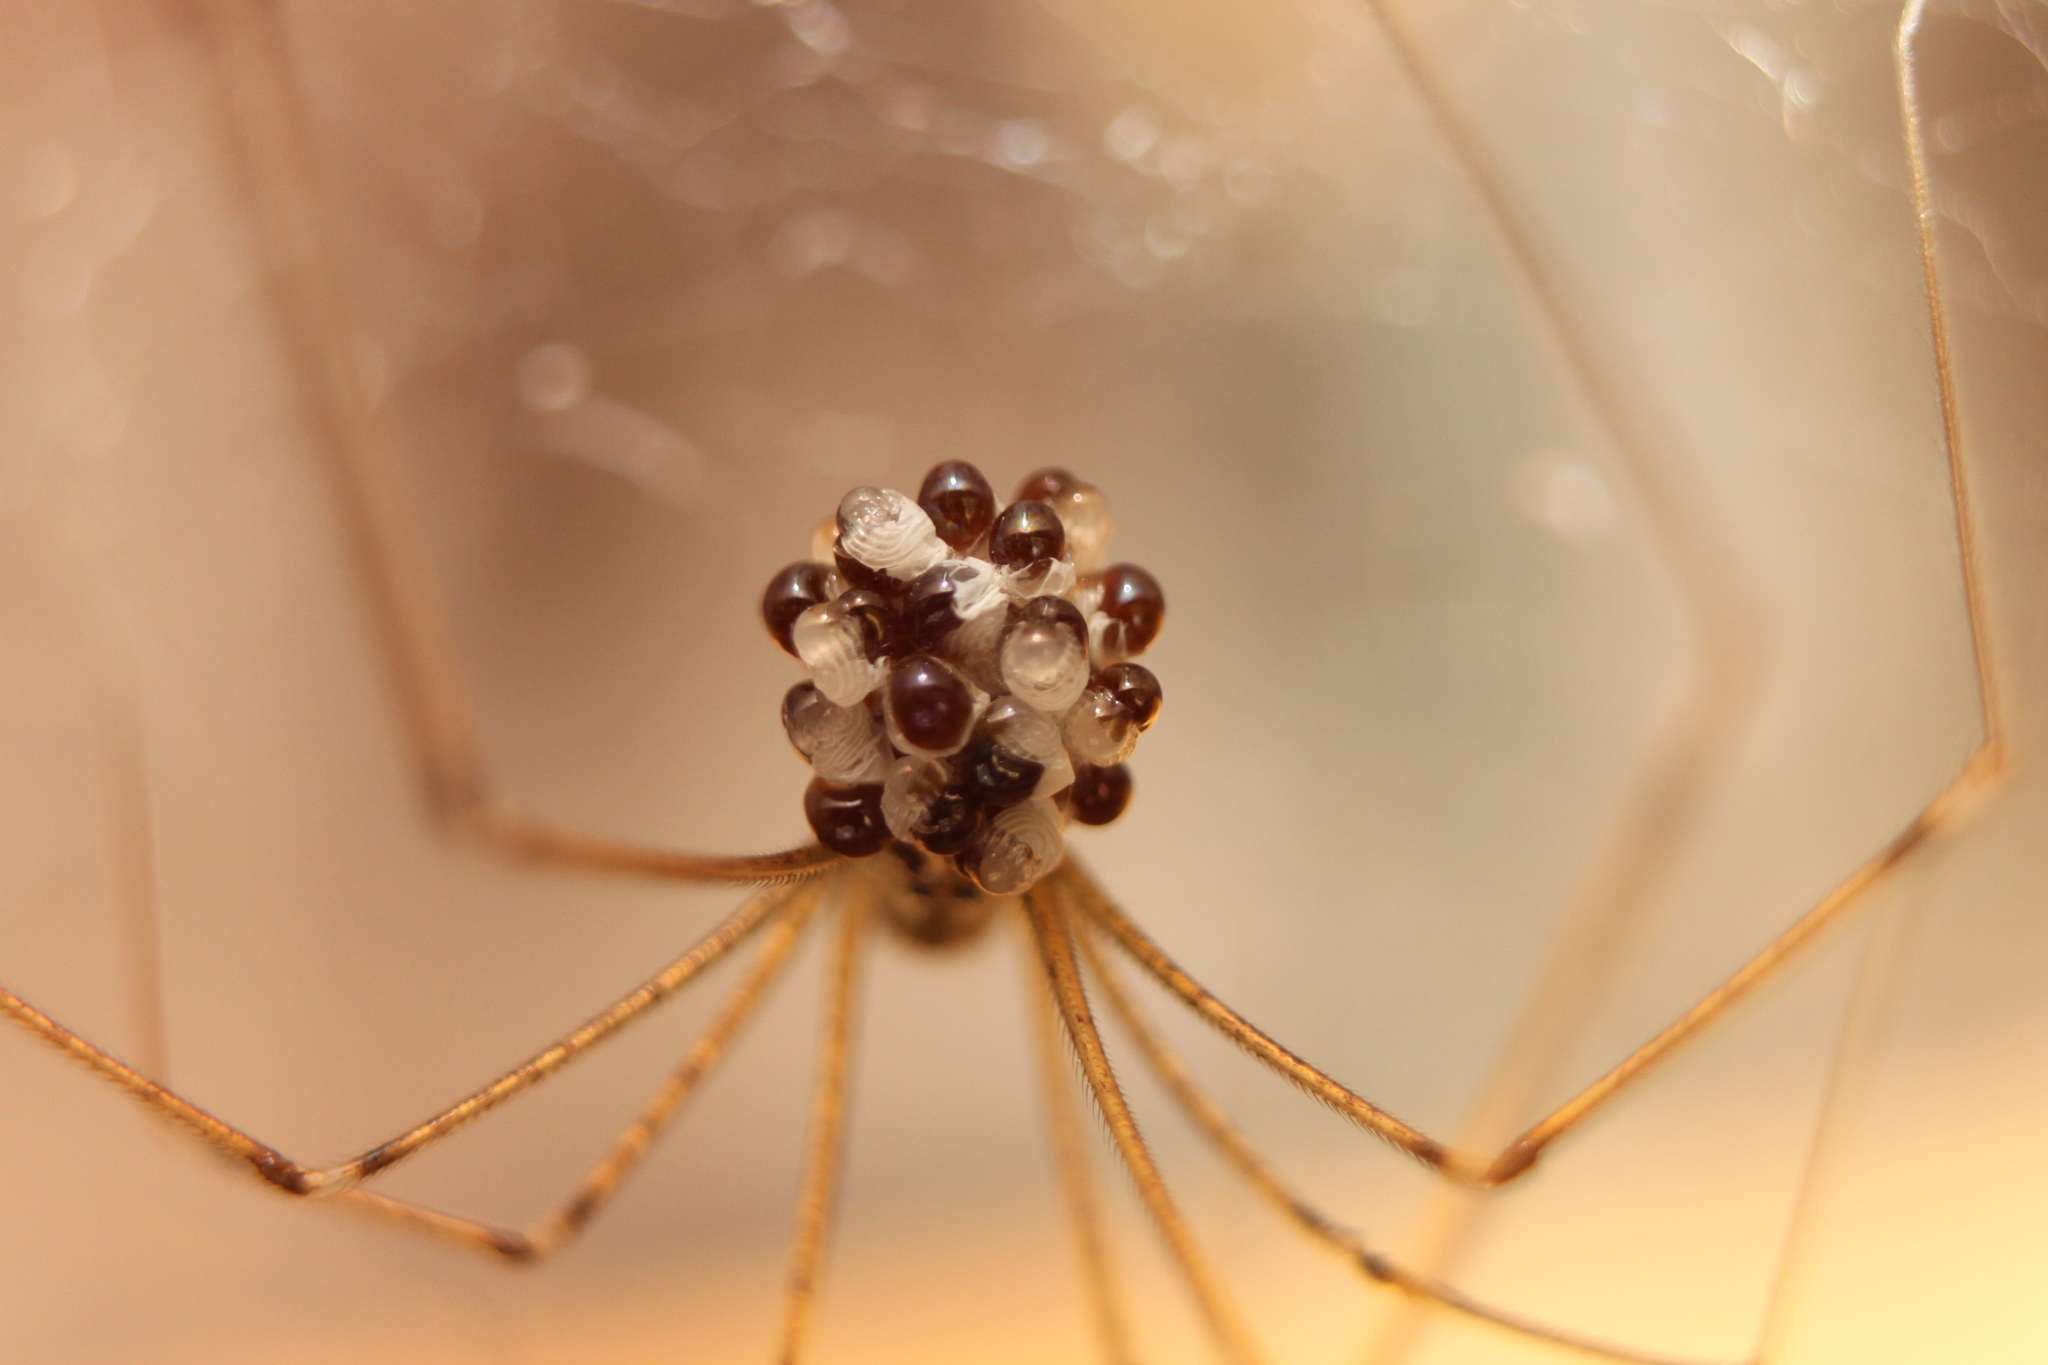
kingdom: Animalia
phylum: Arthropoda
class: Arachnida
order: Araneae
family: Pholcidae
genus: Holocnemus
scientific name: Holocnemus pluchei
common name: Marbled cellar spider
